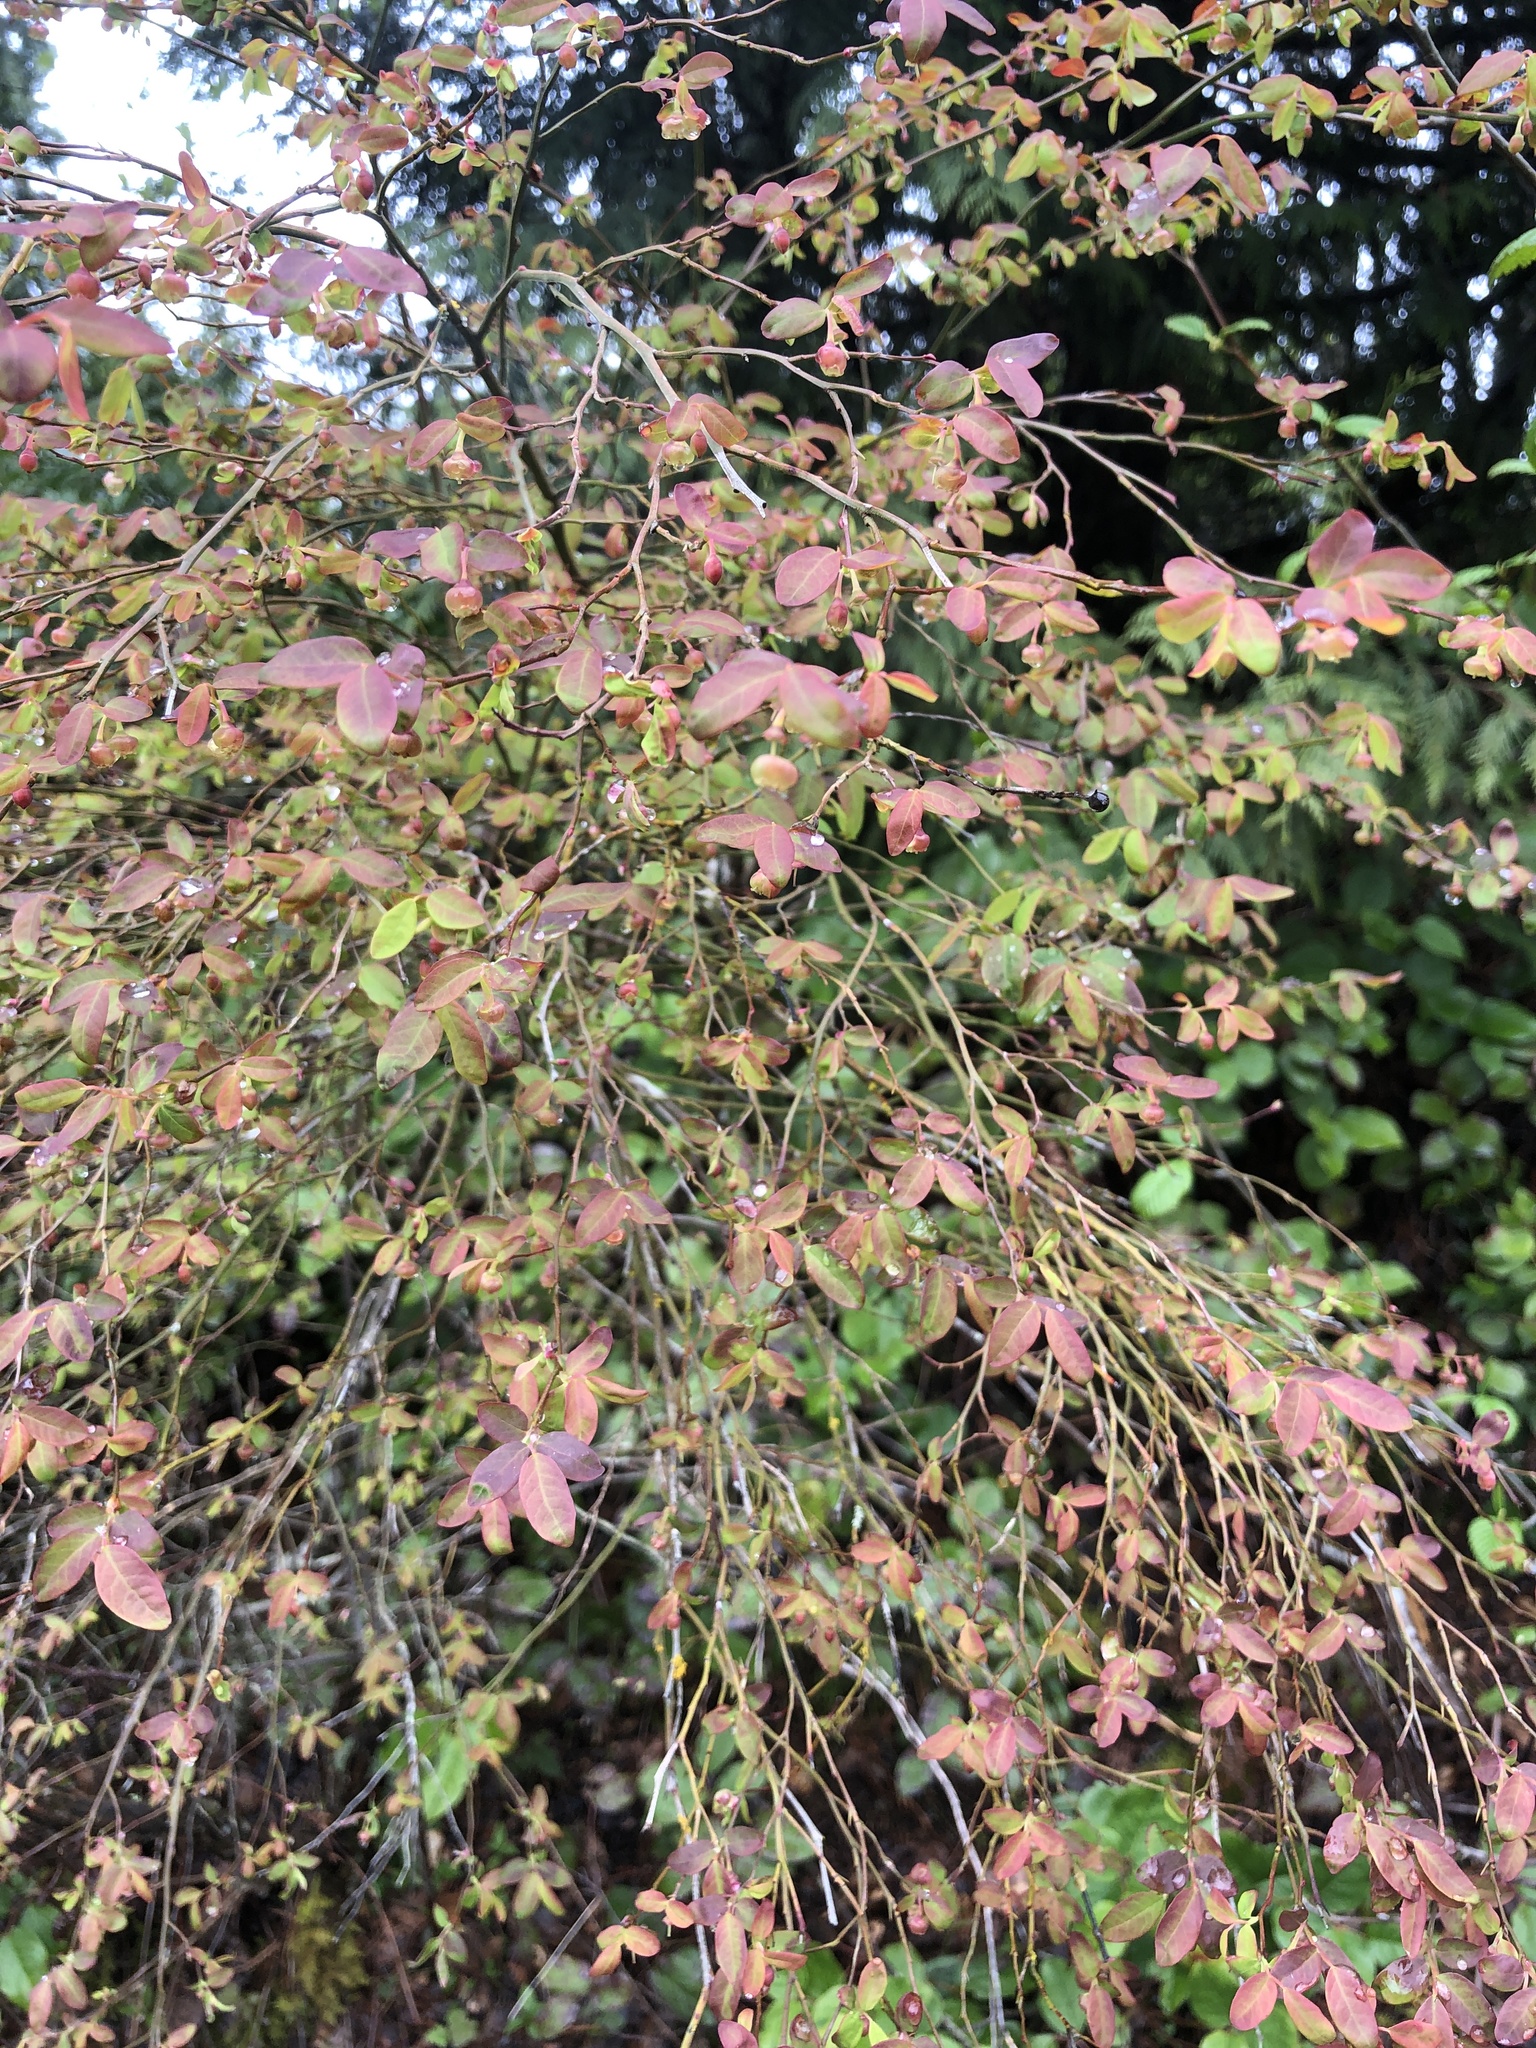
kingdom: Plantae
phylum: Tracheophyta
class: Magnoliopsida
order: Ericales
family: Ericaceae
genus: Vaccinium
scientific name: Vaccinium parvifolium
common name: Red-huckleberry
